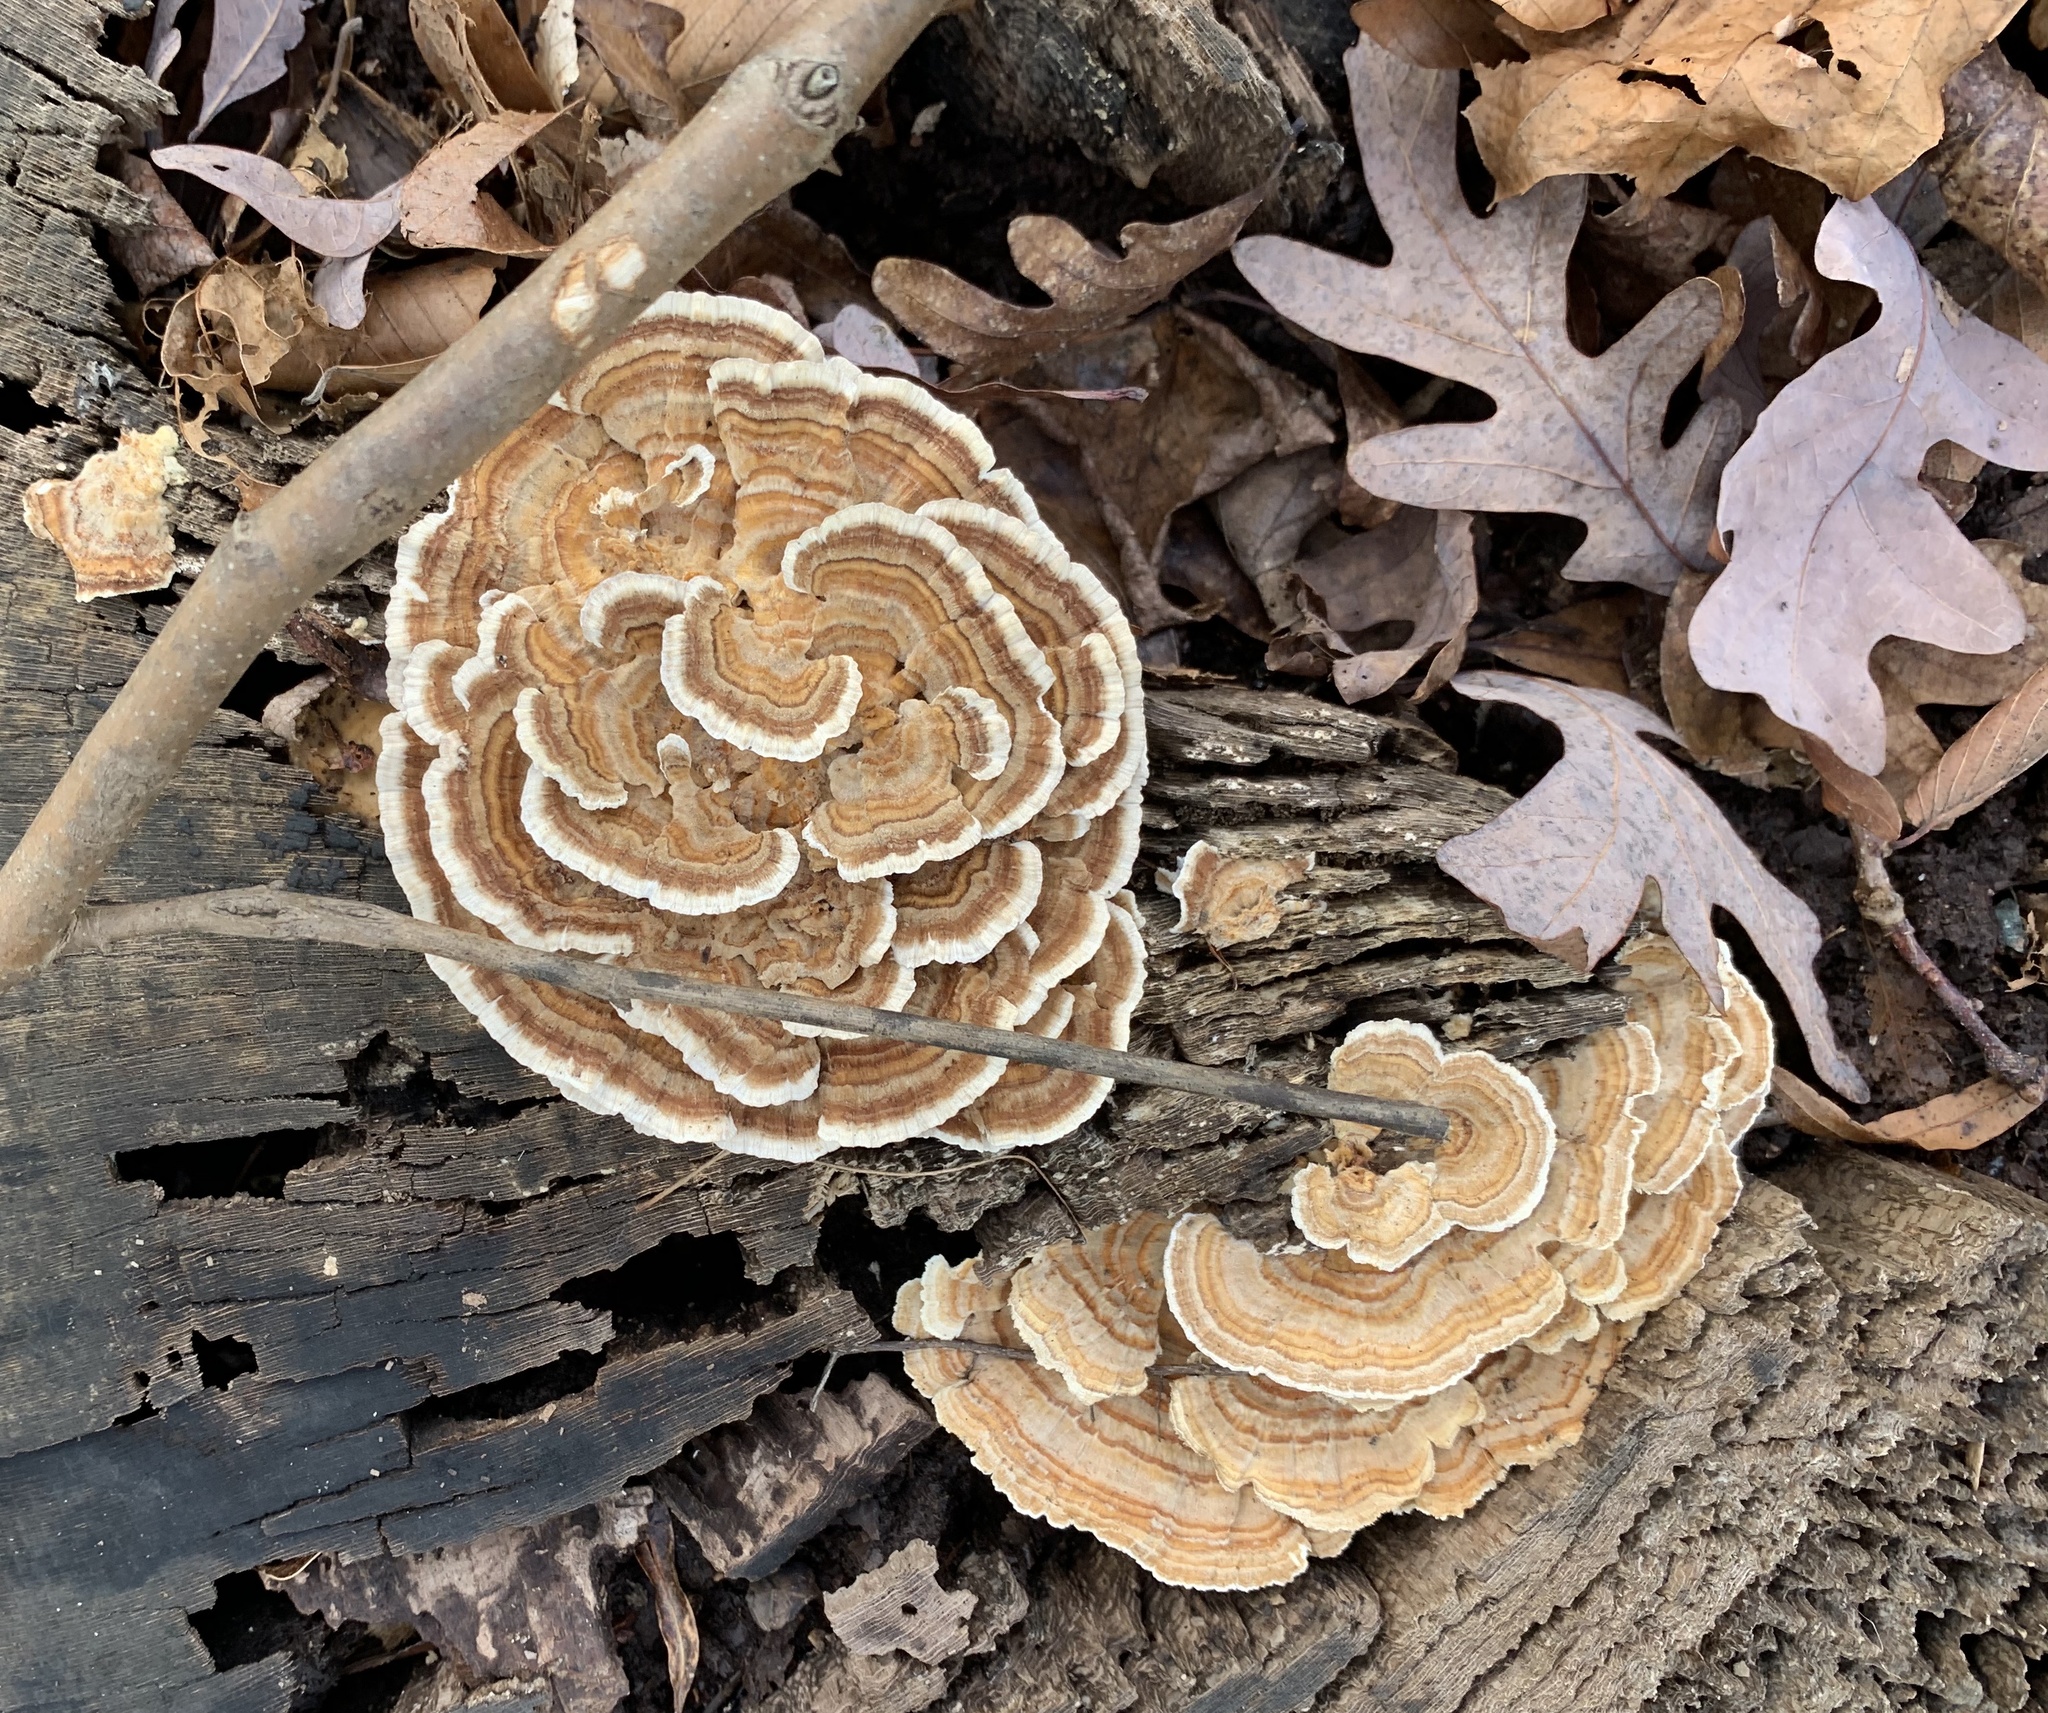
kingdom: Fungi
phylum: Basidiomycota
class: Agaricomycetes
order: Polyporales
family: Polyporaceae
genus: Trametes
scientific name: Trametes versicolor
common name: Turkeytail
